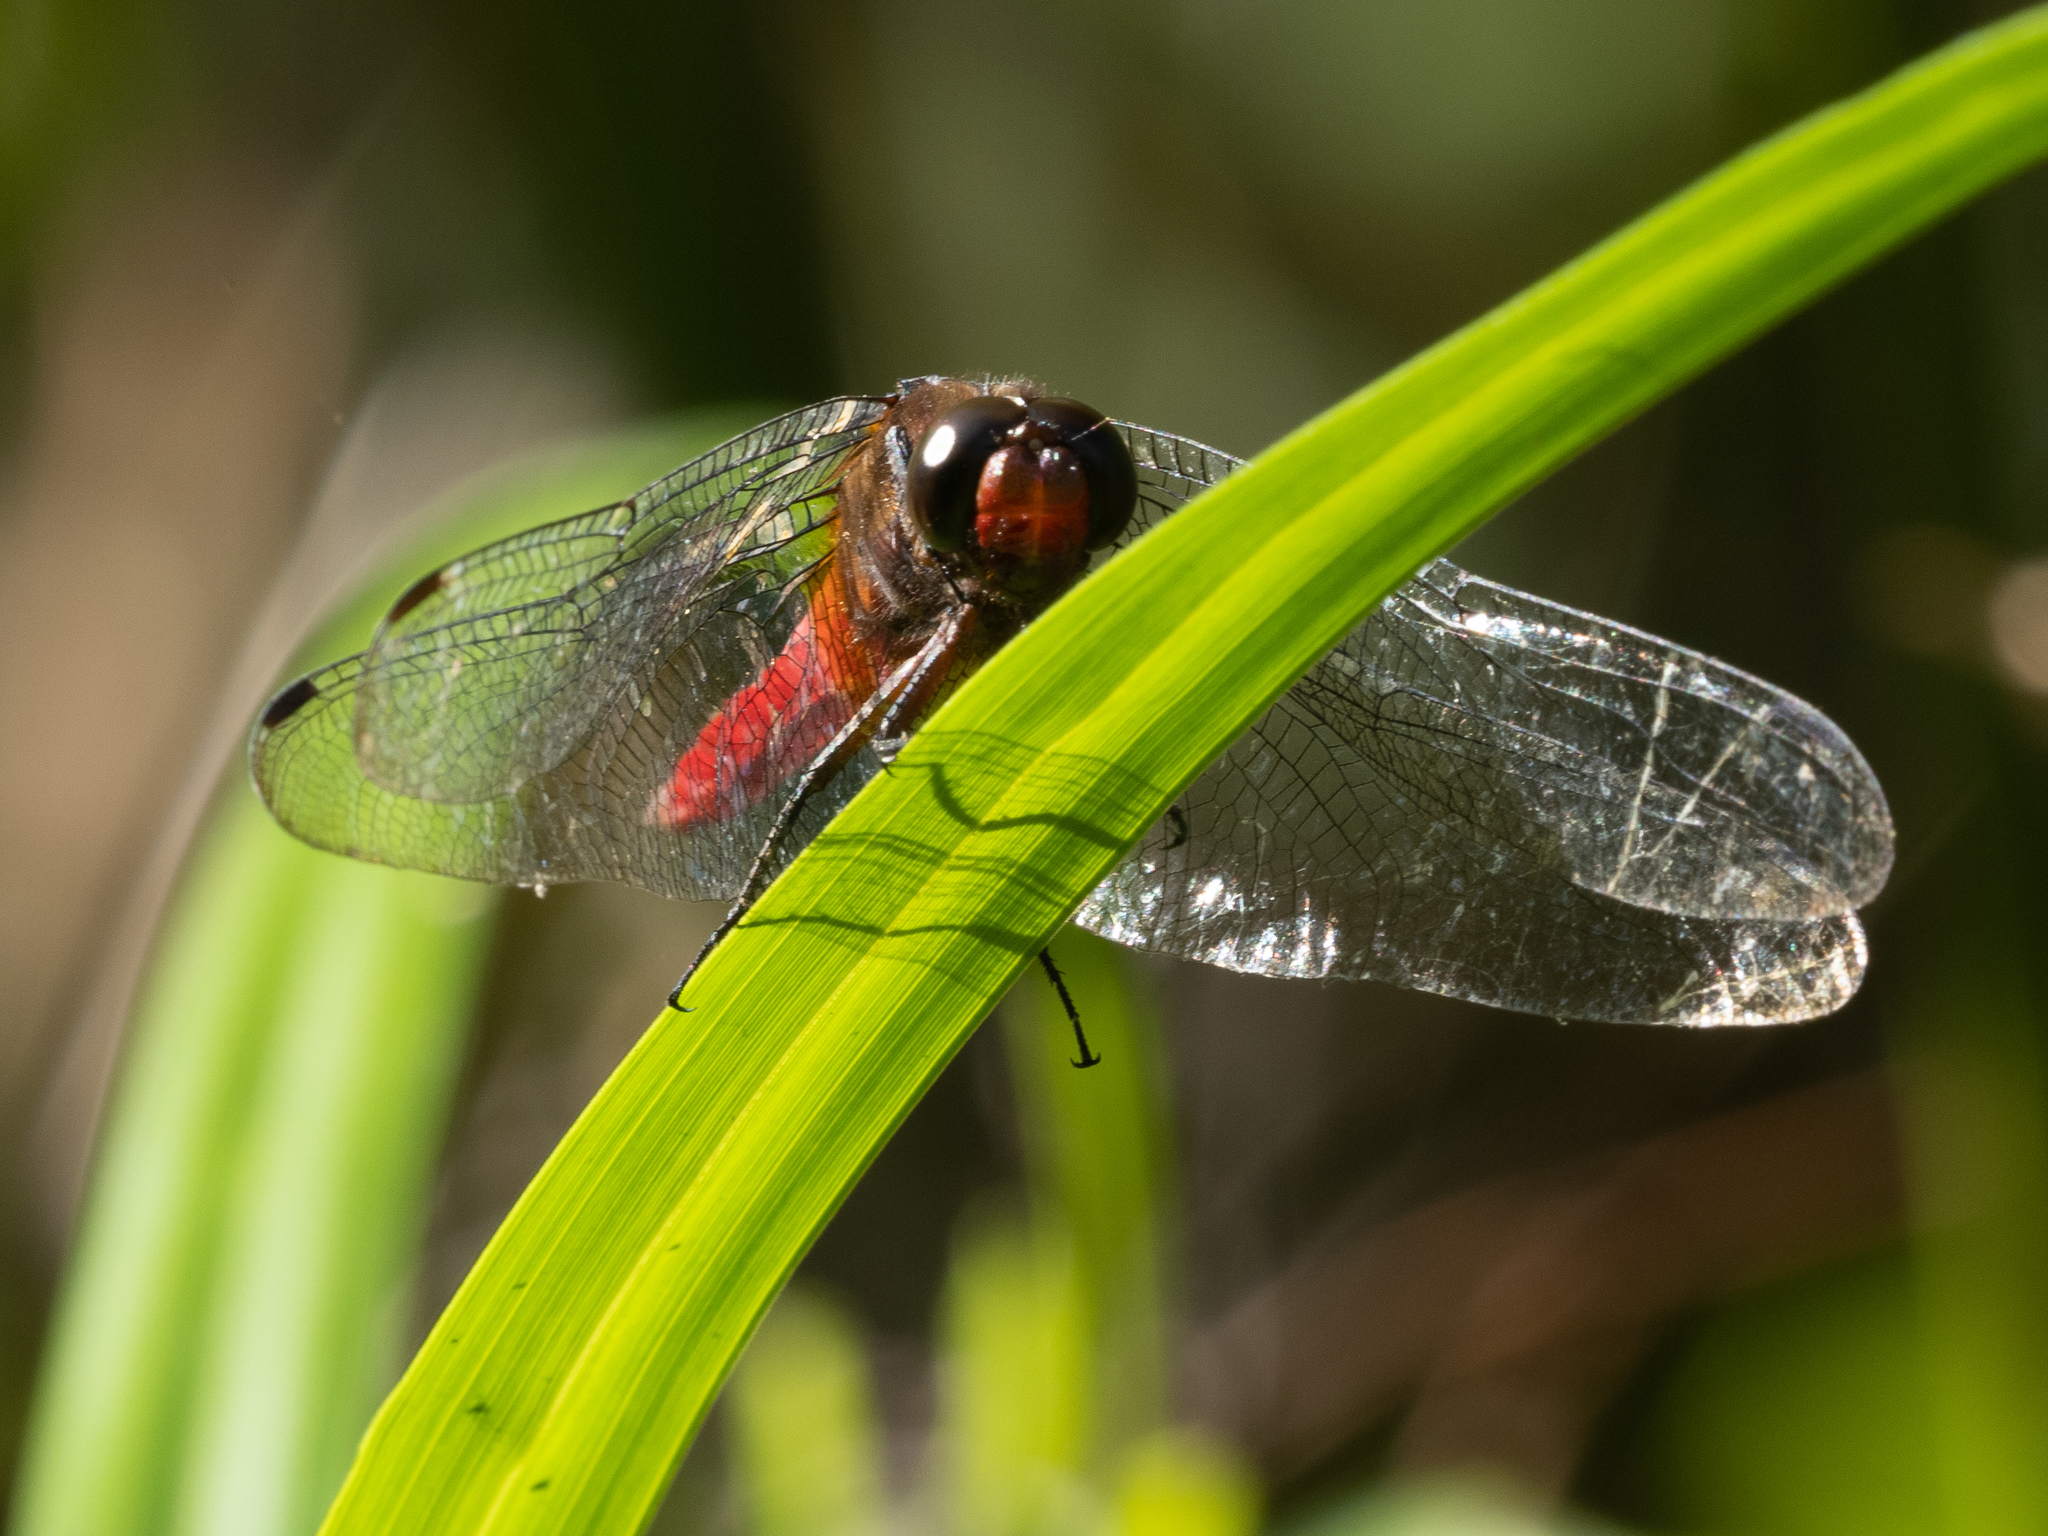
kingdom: Animalia
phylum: Arthropoda
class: Insecta
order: Odonata
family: Libellulidae
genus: Orthetrum
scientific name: Orthetrum chrysis
